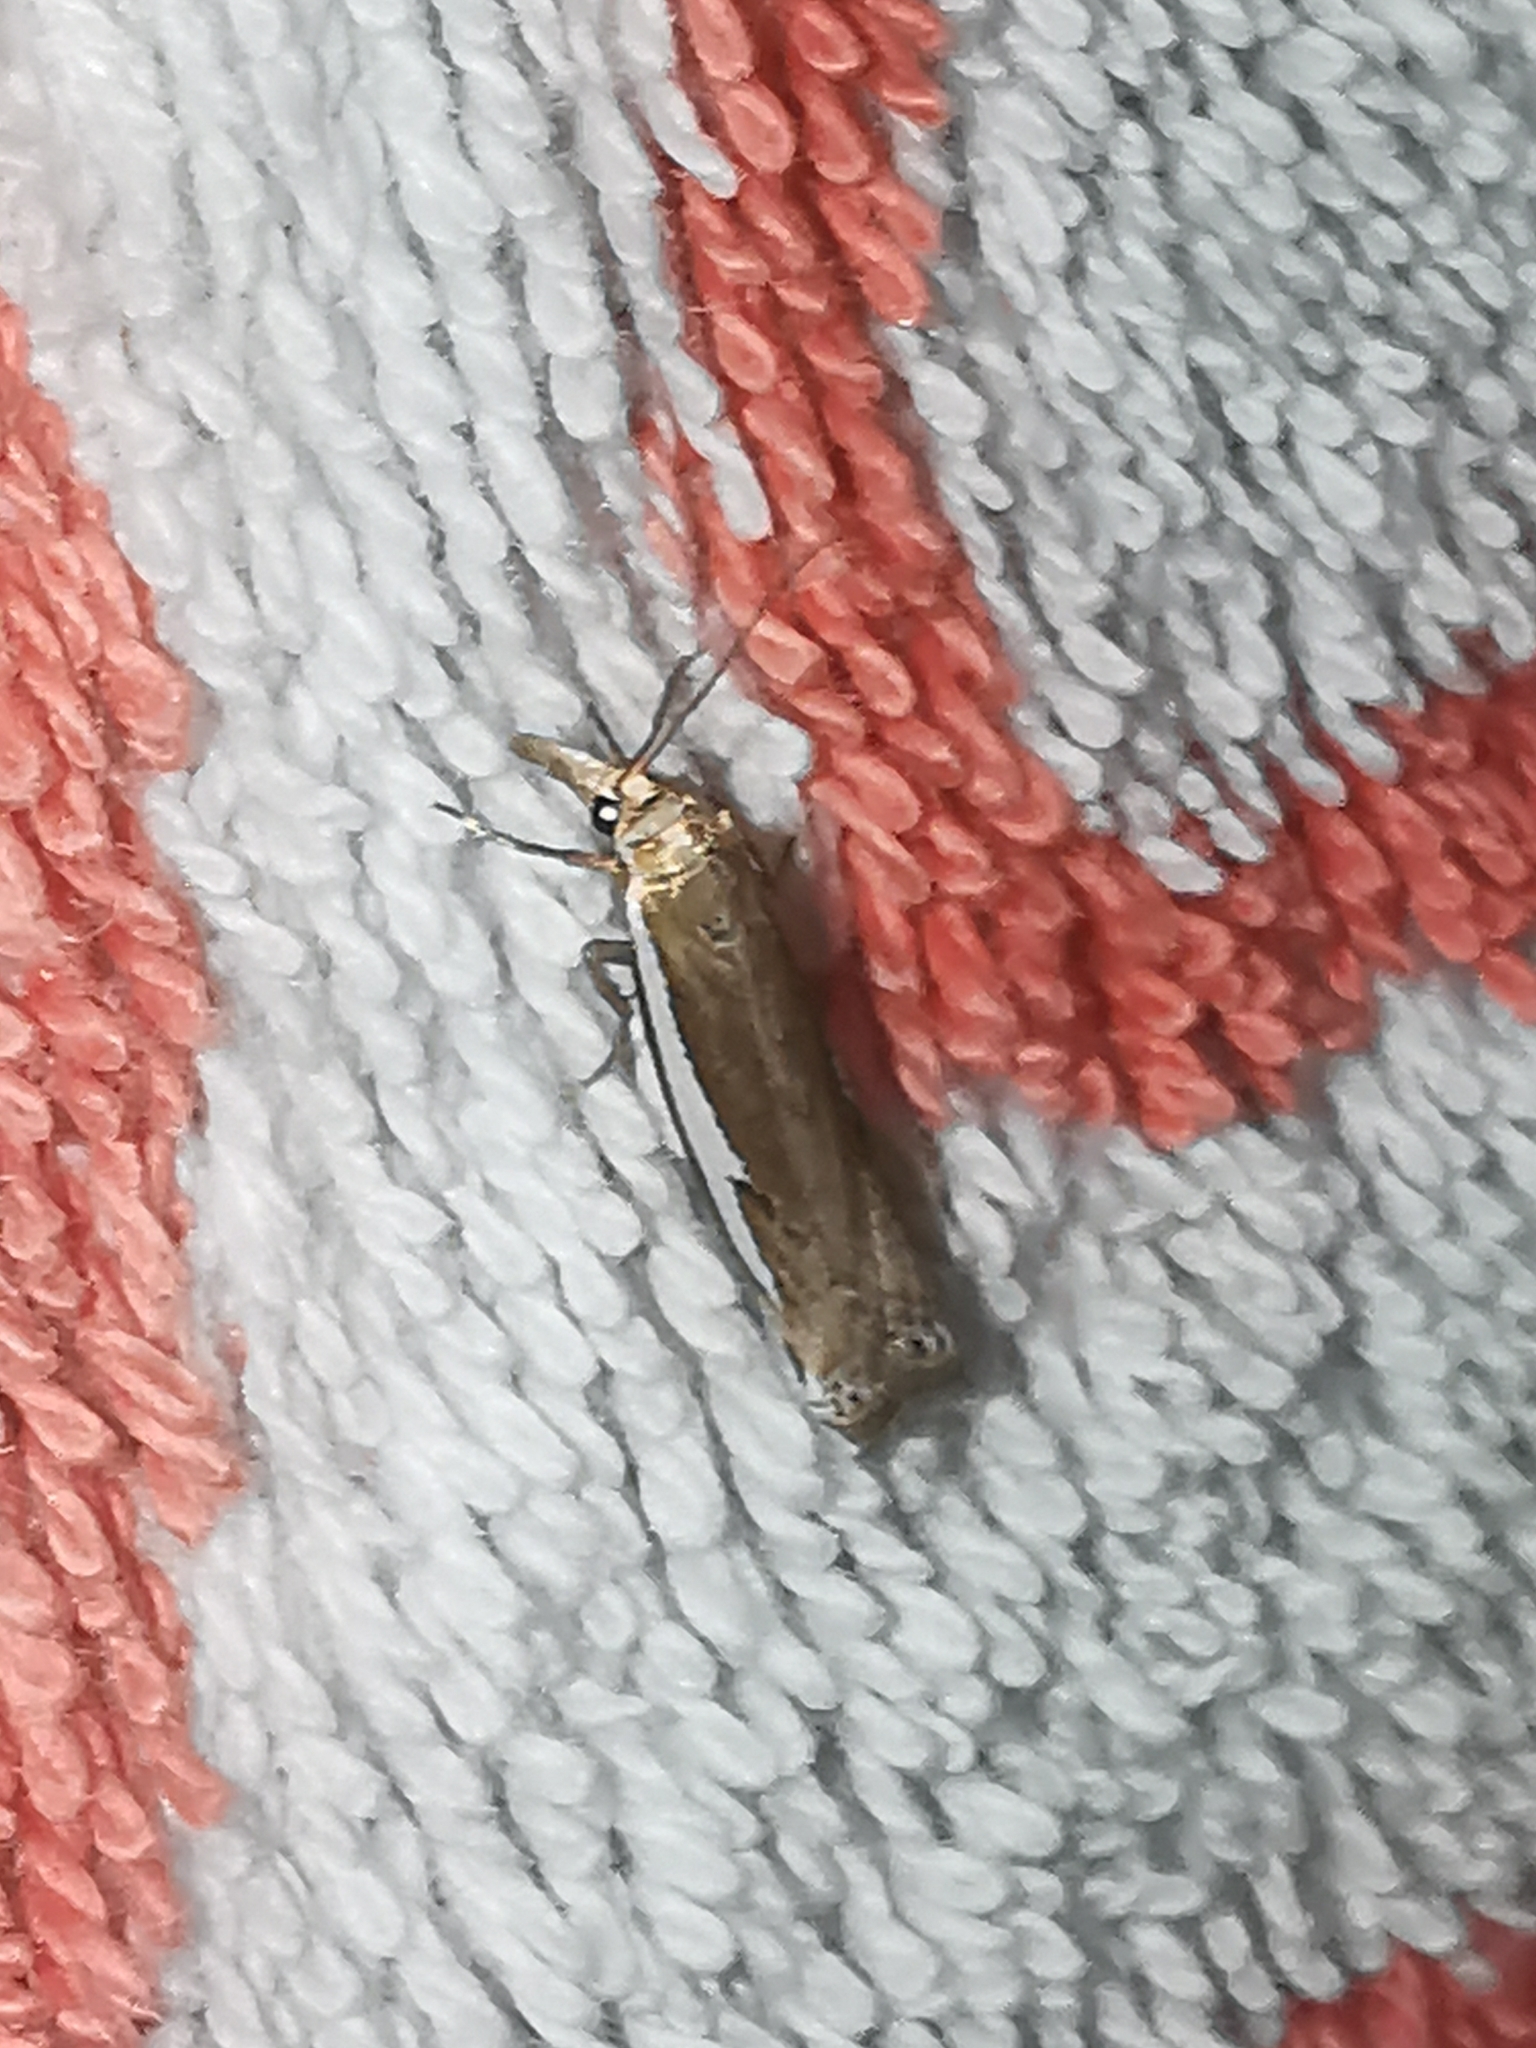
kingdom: Animalia
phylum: Arthropoda
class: Insecta
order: Lepidoptera
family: Crambidae
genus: Crambus
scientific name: Crambus hamella
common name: Dark grass-veneer
